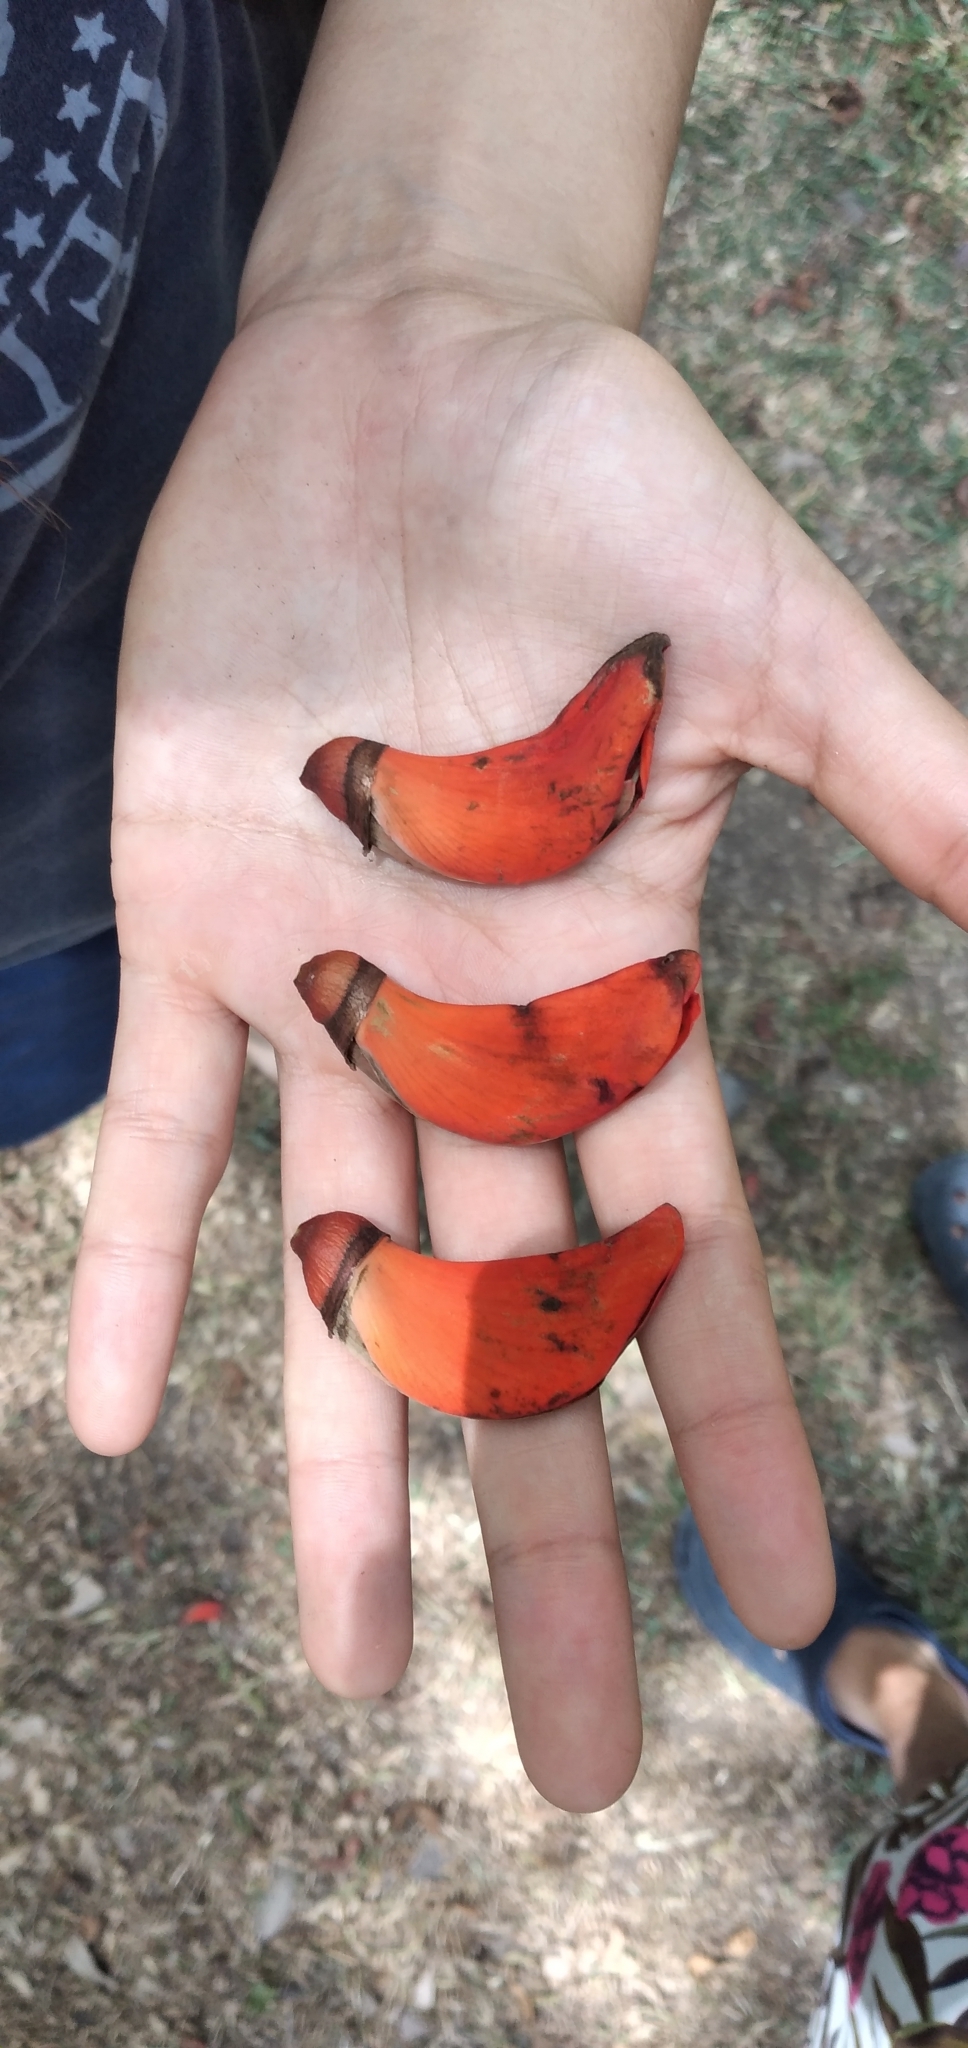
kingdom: Plantae
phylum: Tracheophyta
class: Magnoliopsida
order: Fabales
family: Fabaceae
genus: Erythrina
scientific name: Erythrina crista-galli
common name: Cockspur coral tree
